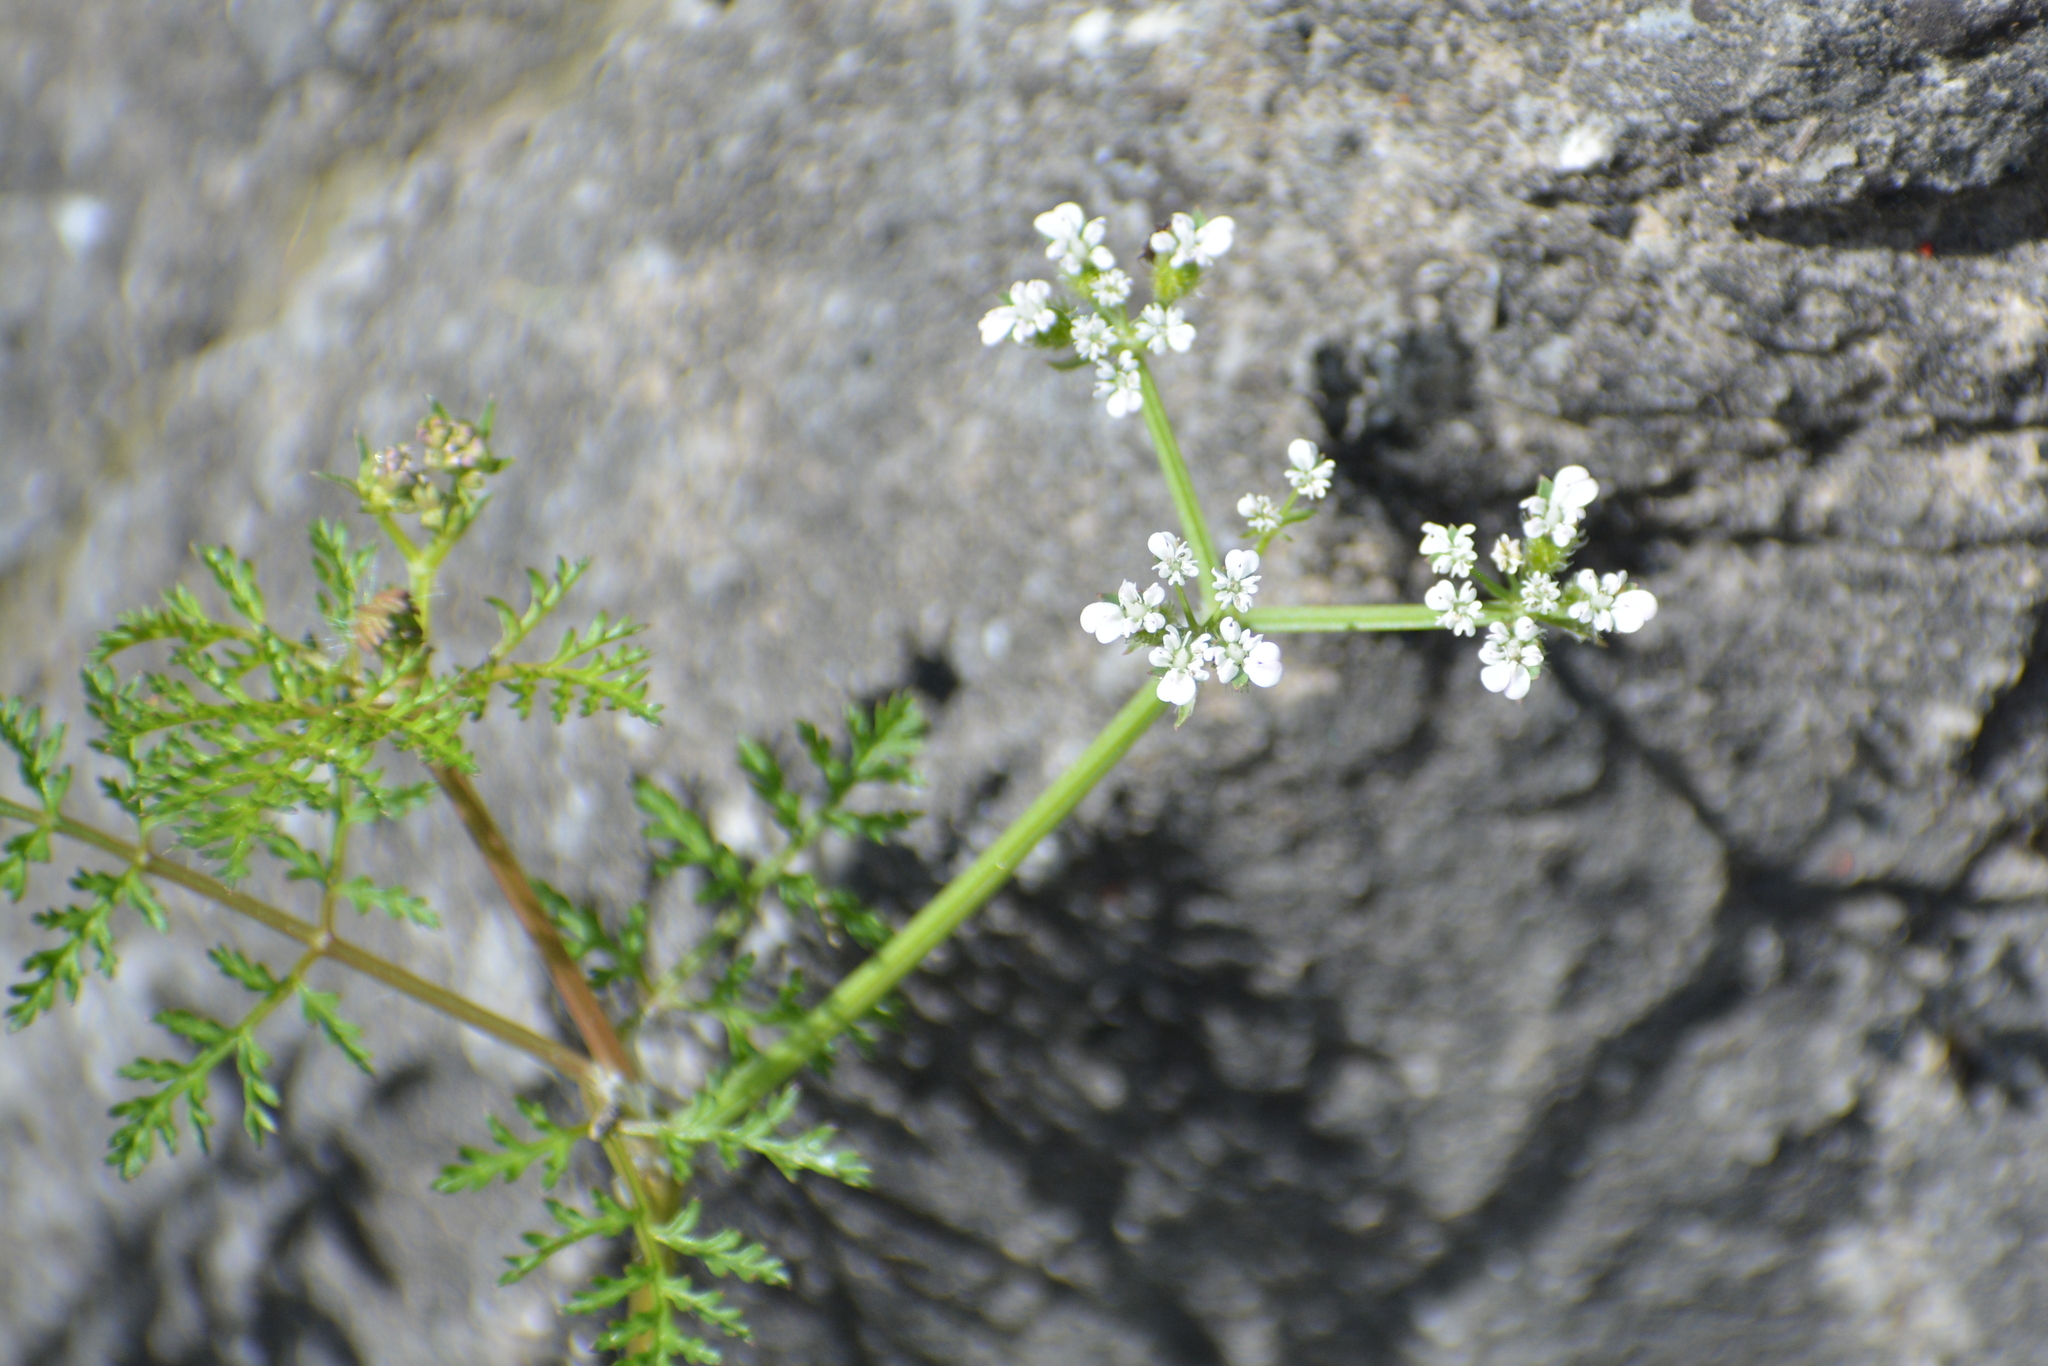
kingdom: Plantae
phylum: Tracheophyta
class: Magnoliopsida
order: Apiales
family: Apiaceae
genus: Caucalis
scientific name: Caucalis platycarpos
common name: Small bur-parsley
